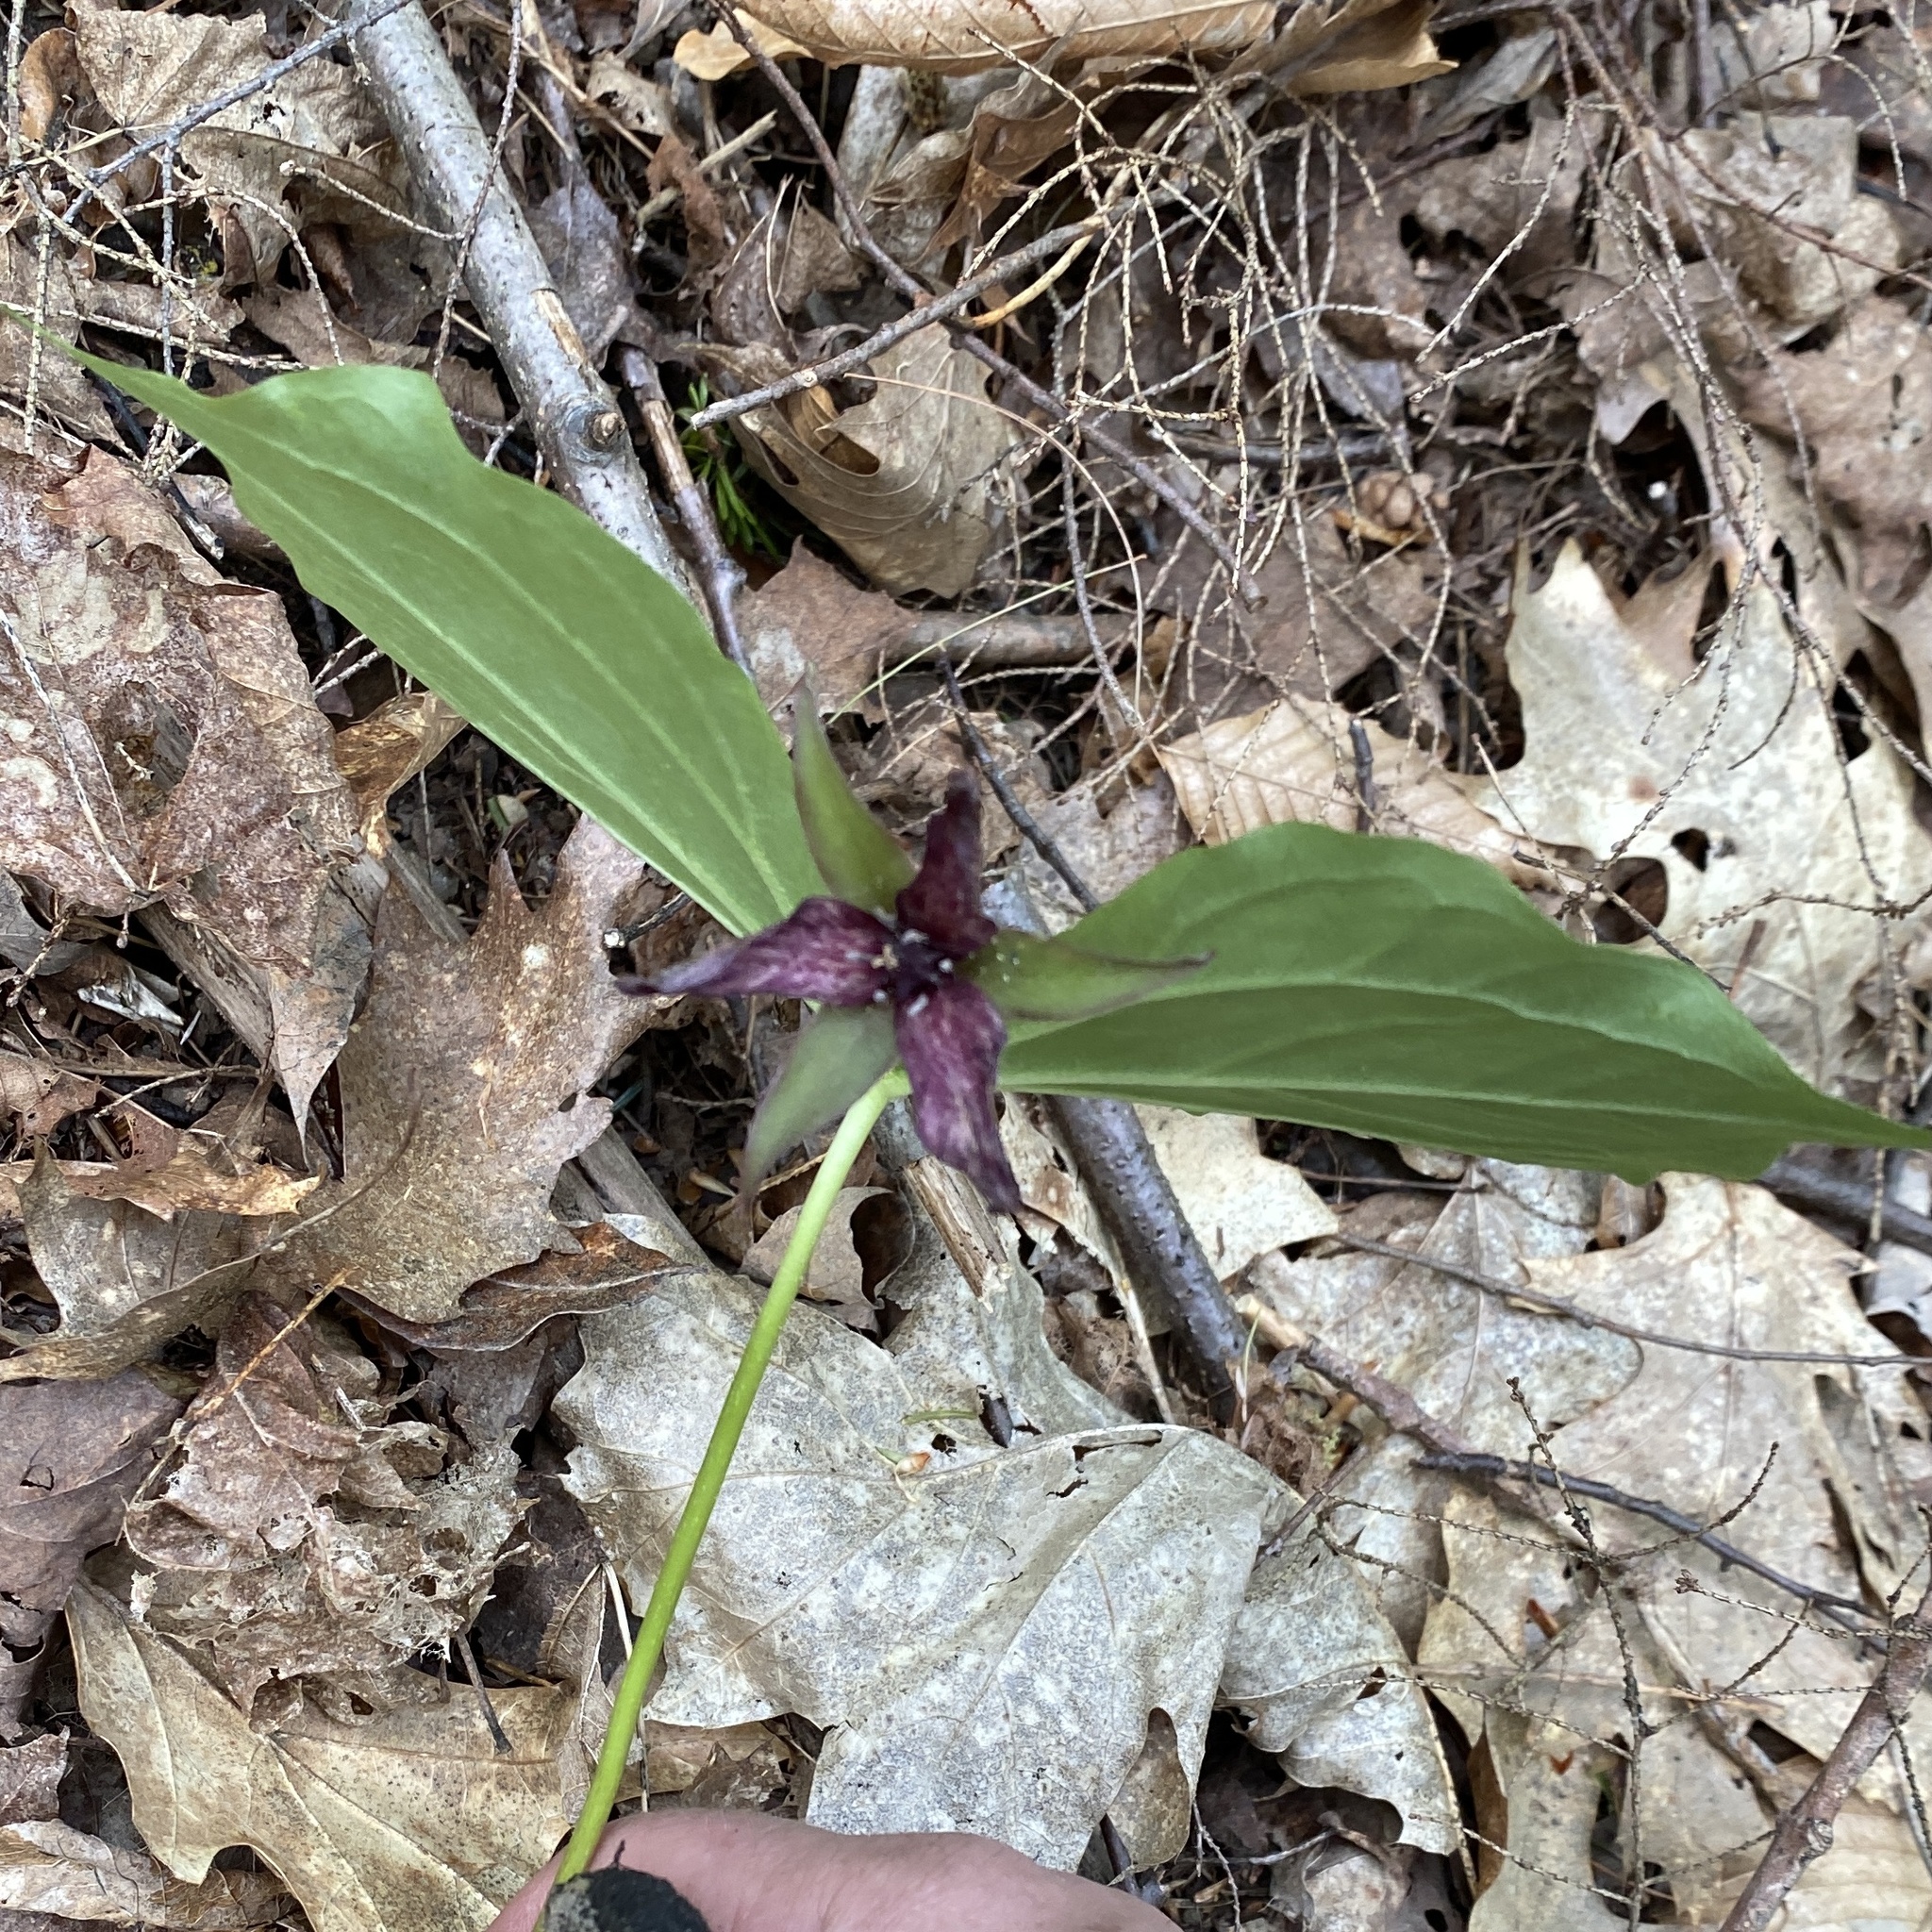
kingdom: Plantae
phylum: Tracheophyta
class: Liliopsida
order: Liliales
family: Melanthiaceae
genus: Trillium
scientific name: Trillium erectum
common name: Purple trillium
